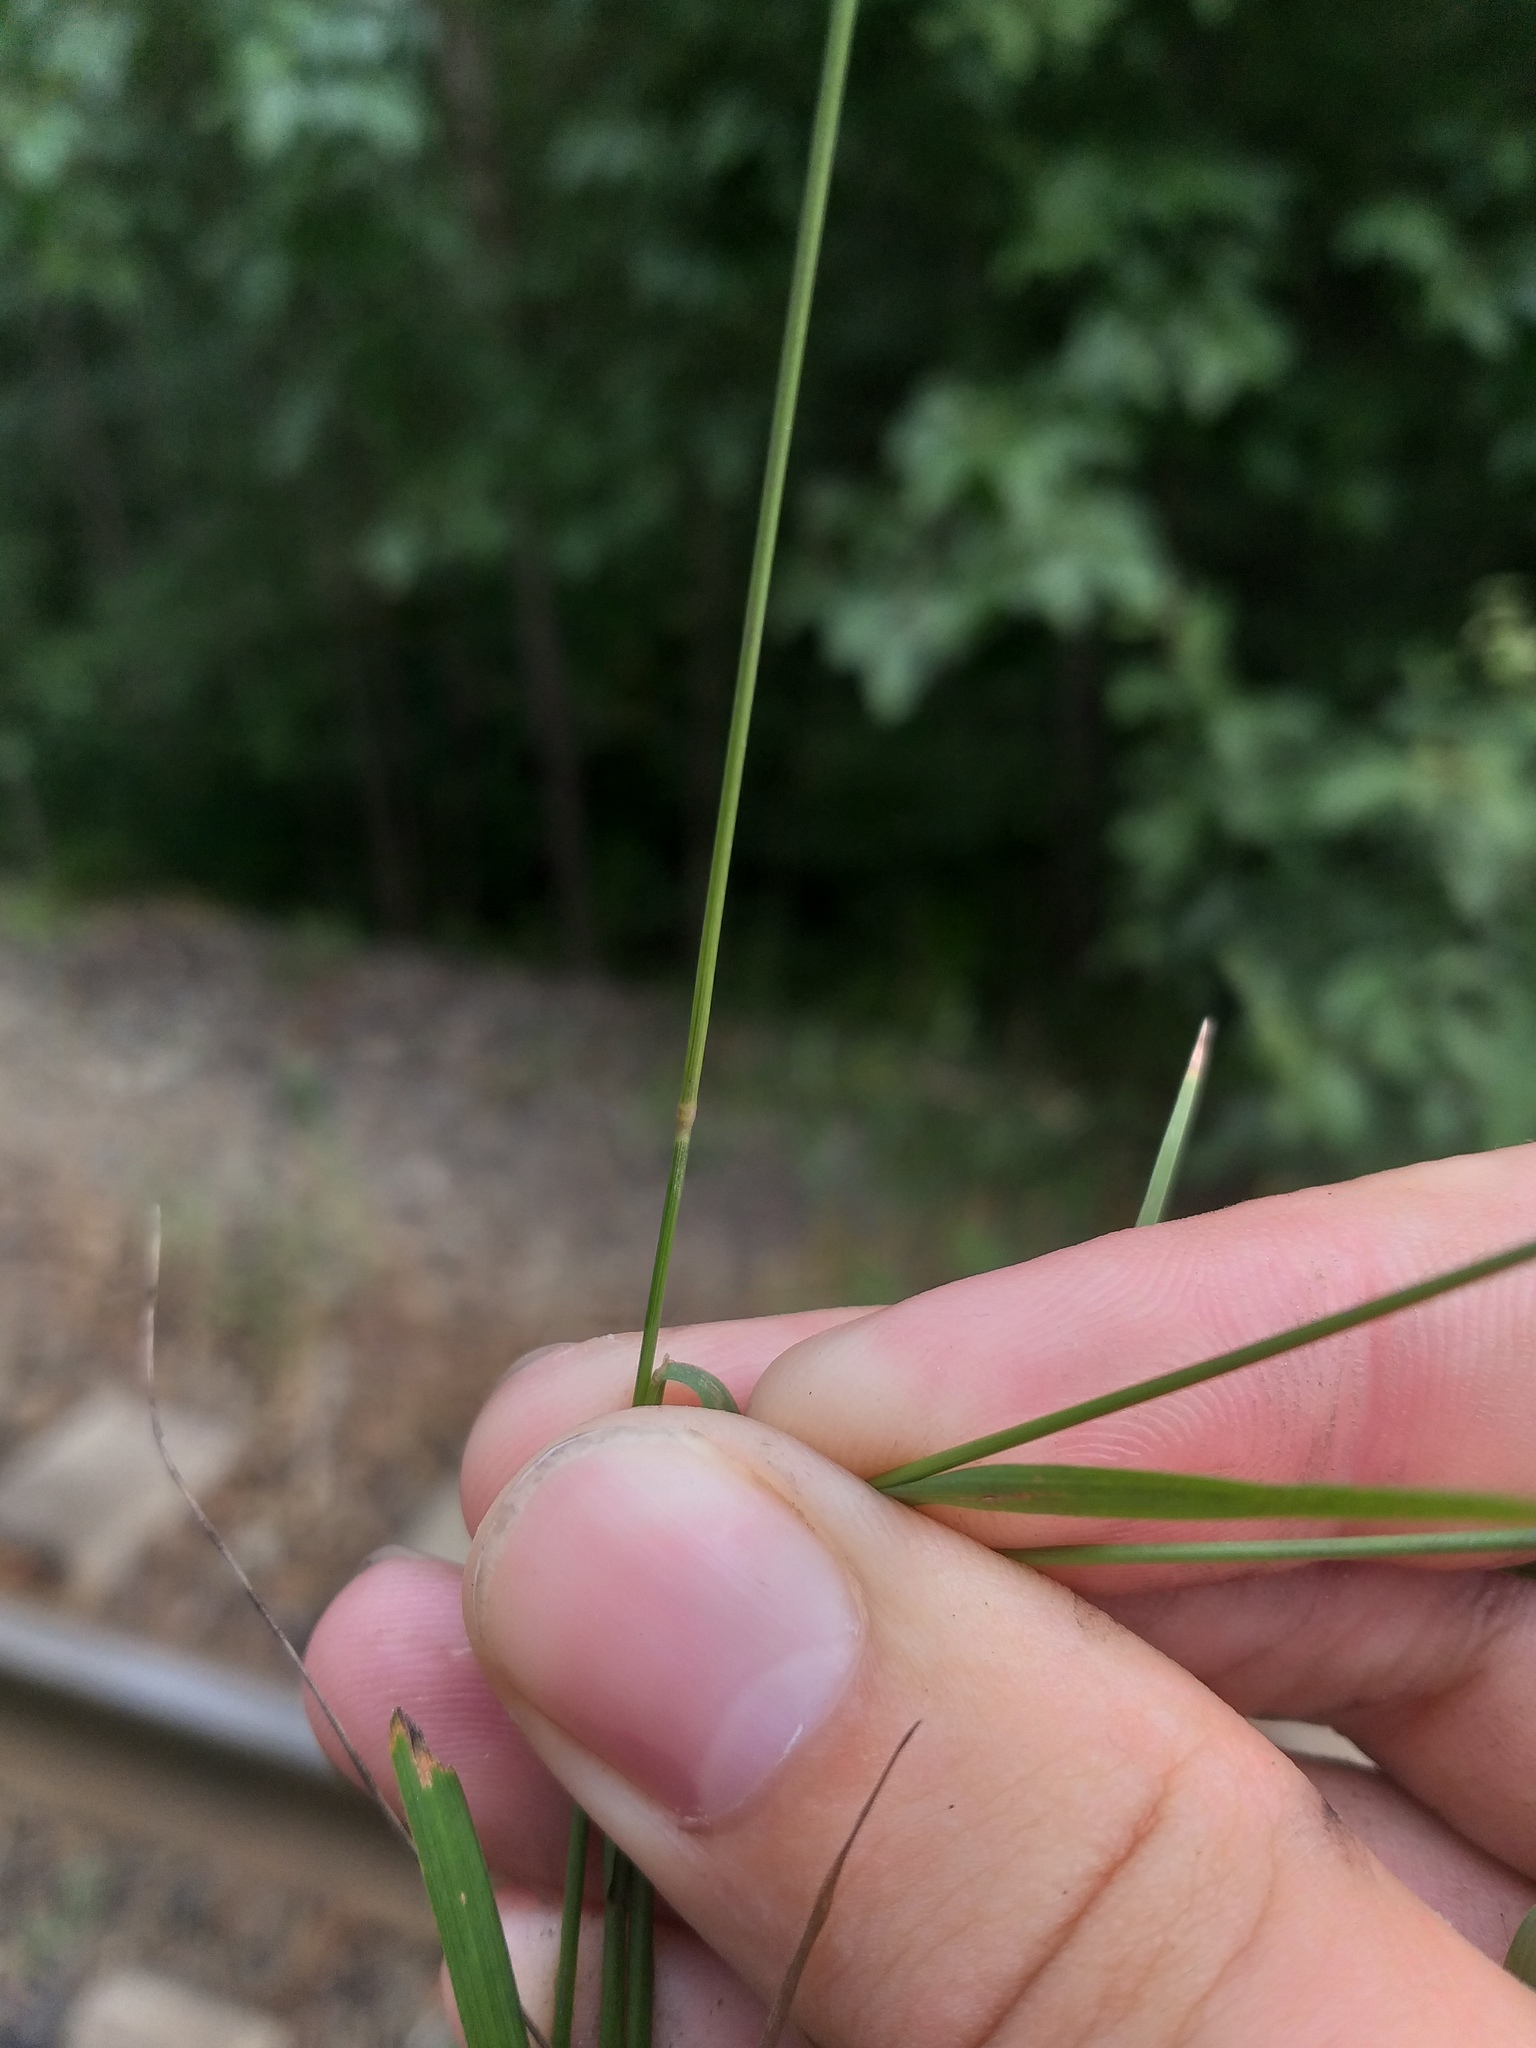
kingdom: Plantae
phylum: Tracheophyta
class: Liliopsida
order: Poales
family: Poaceae
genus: Agrostis
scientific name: Agrostis capillaris
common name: Colonial bentgrass
